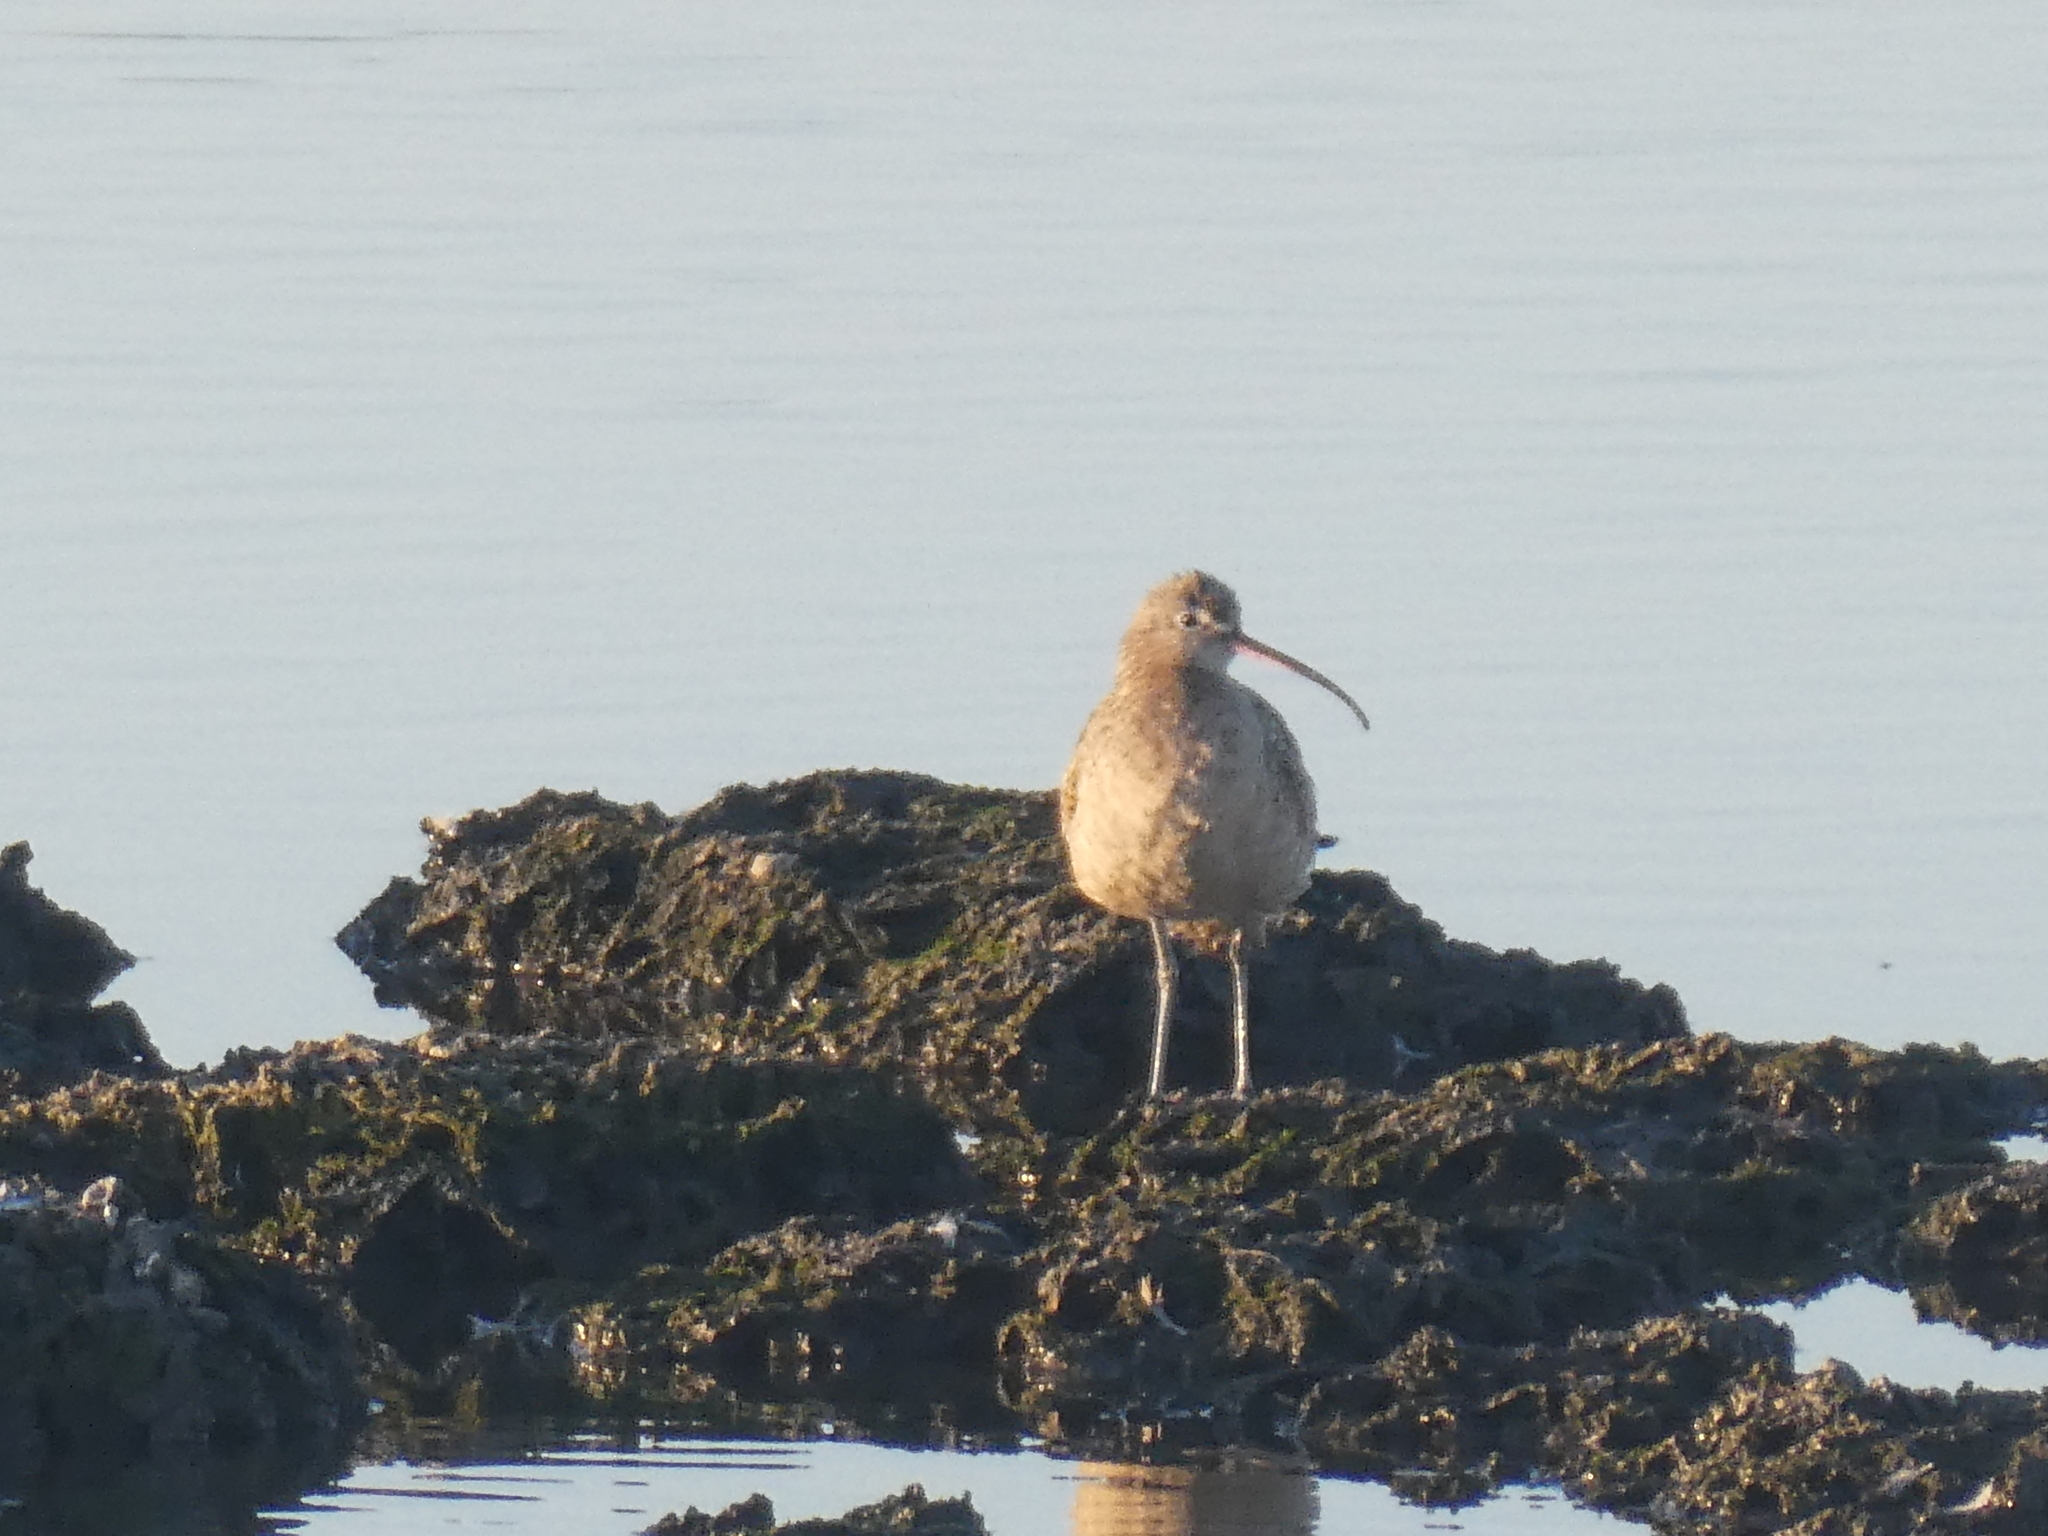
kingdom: Animalia
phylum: Chordata
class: Aves
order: Charadriiformes
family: Scolopacidae
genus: Numenius
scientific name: Numenius americanus
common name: Long-billed curlew
